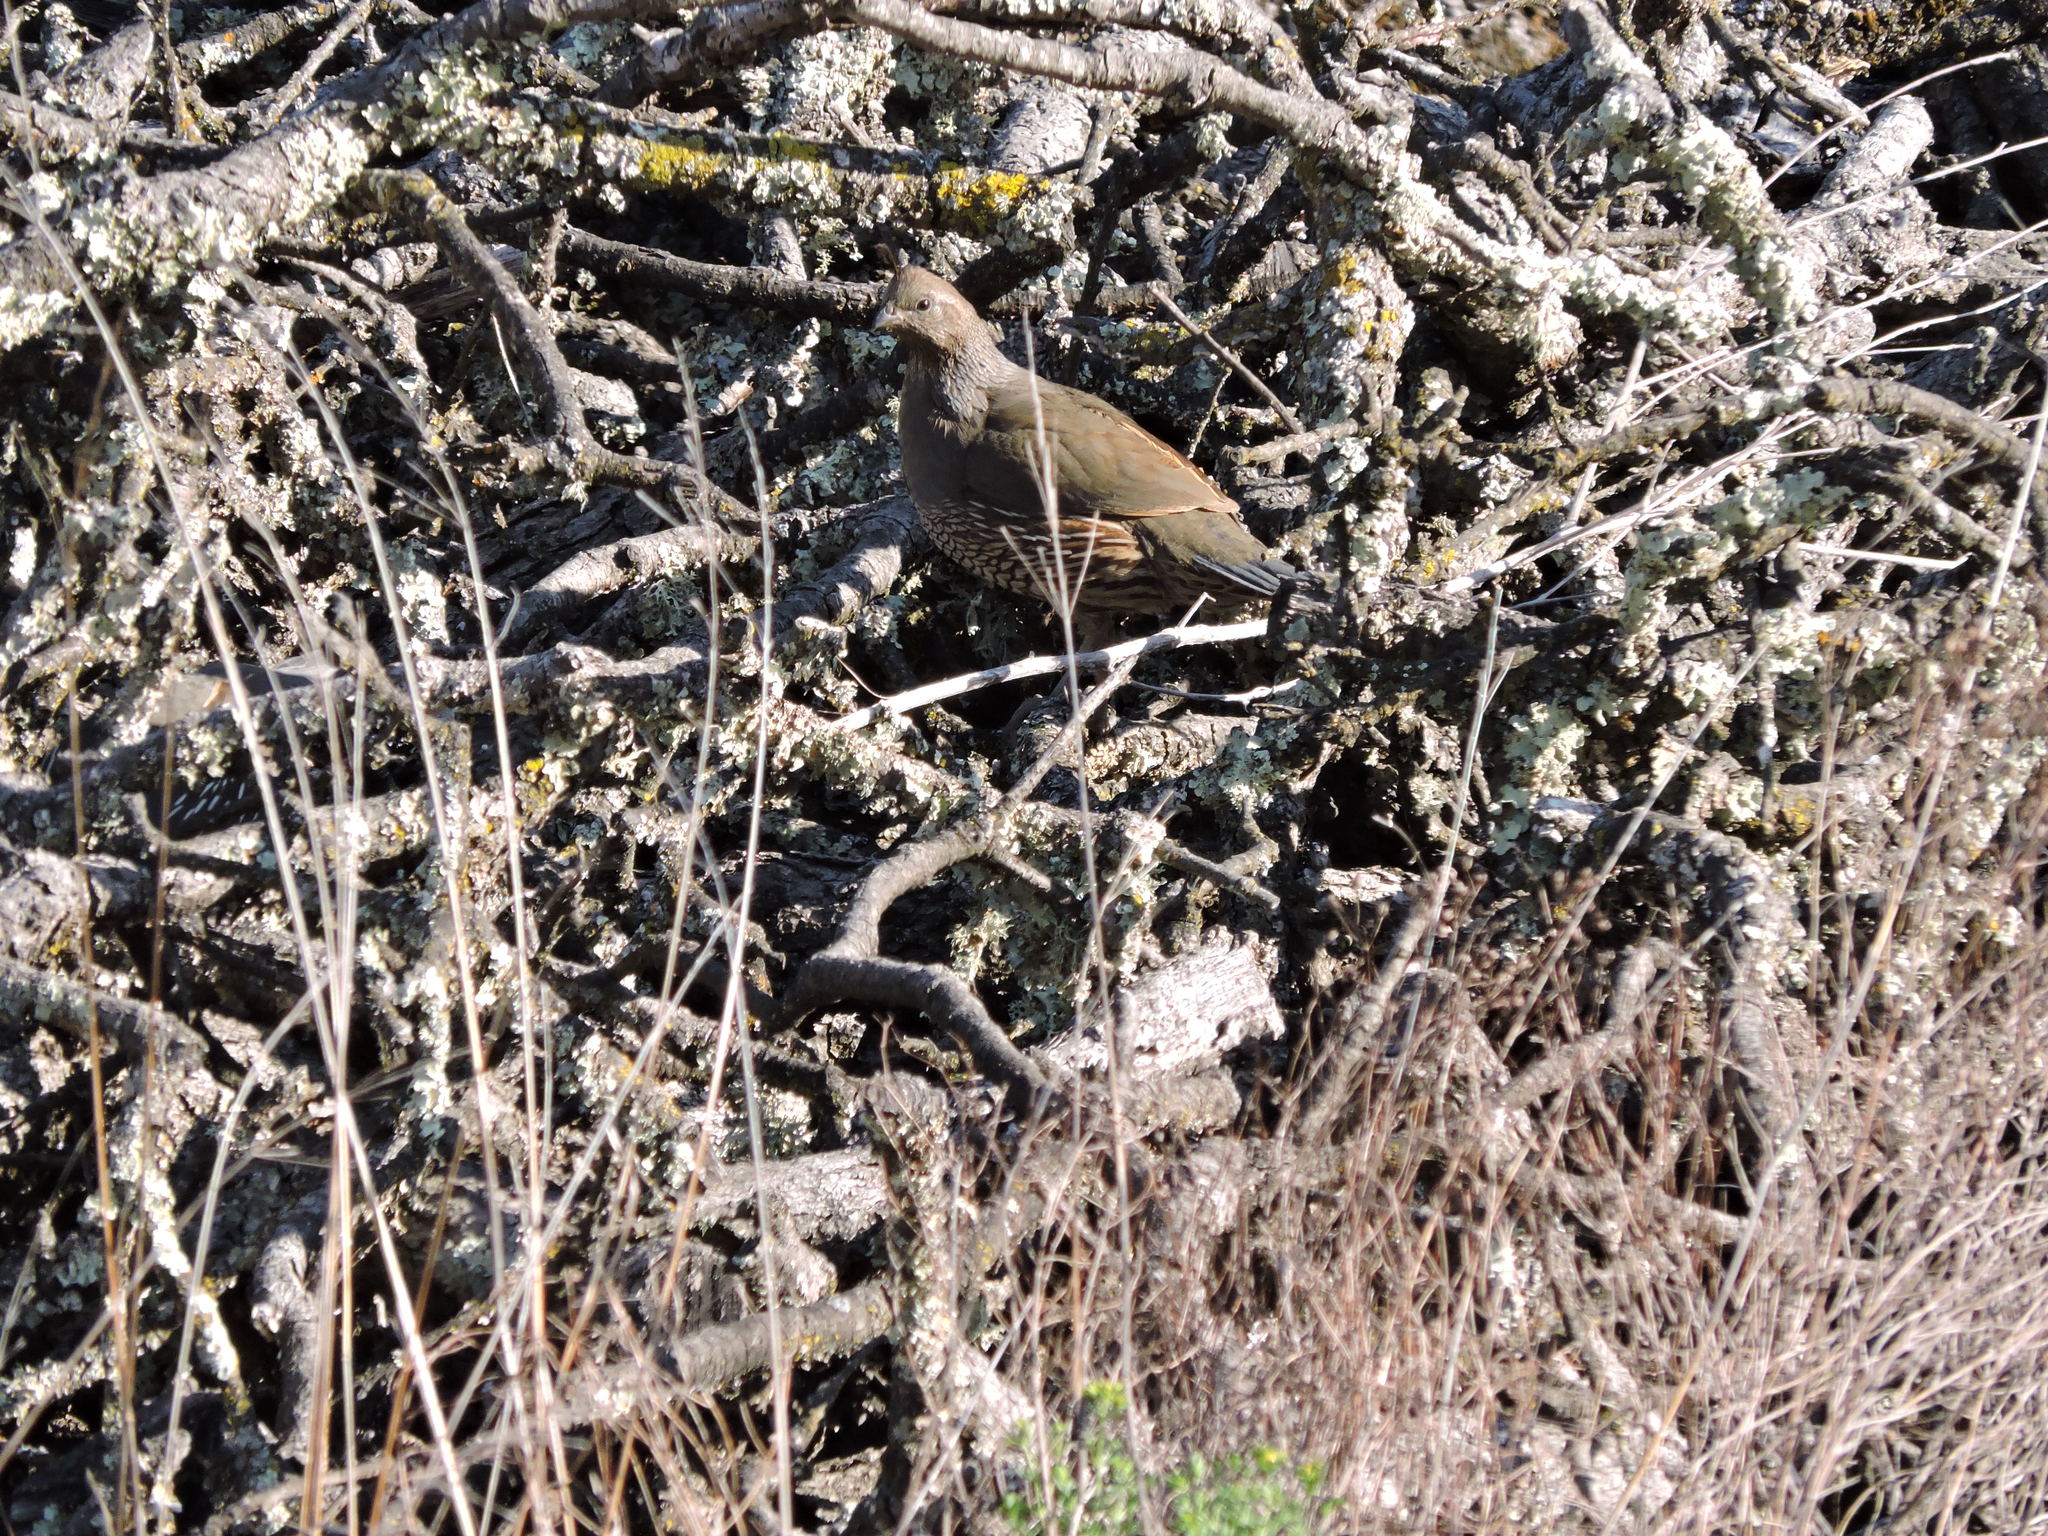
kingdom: Animalia
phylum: Chordata
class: Aves
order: Galliformes
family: Odontophoridae
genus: Callipepla
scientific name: Callipepla californica
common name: California quail
